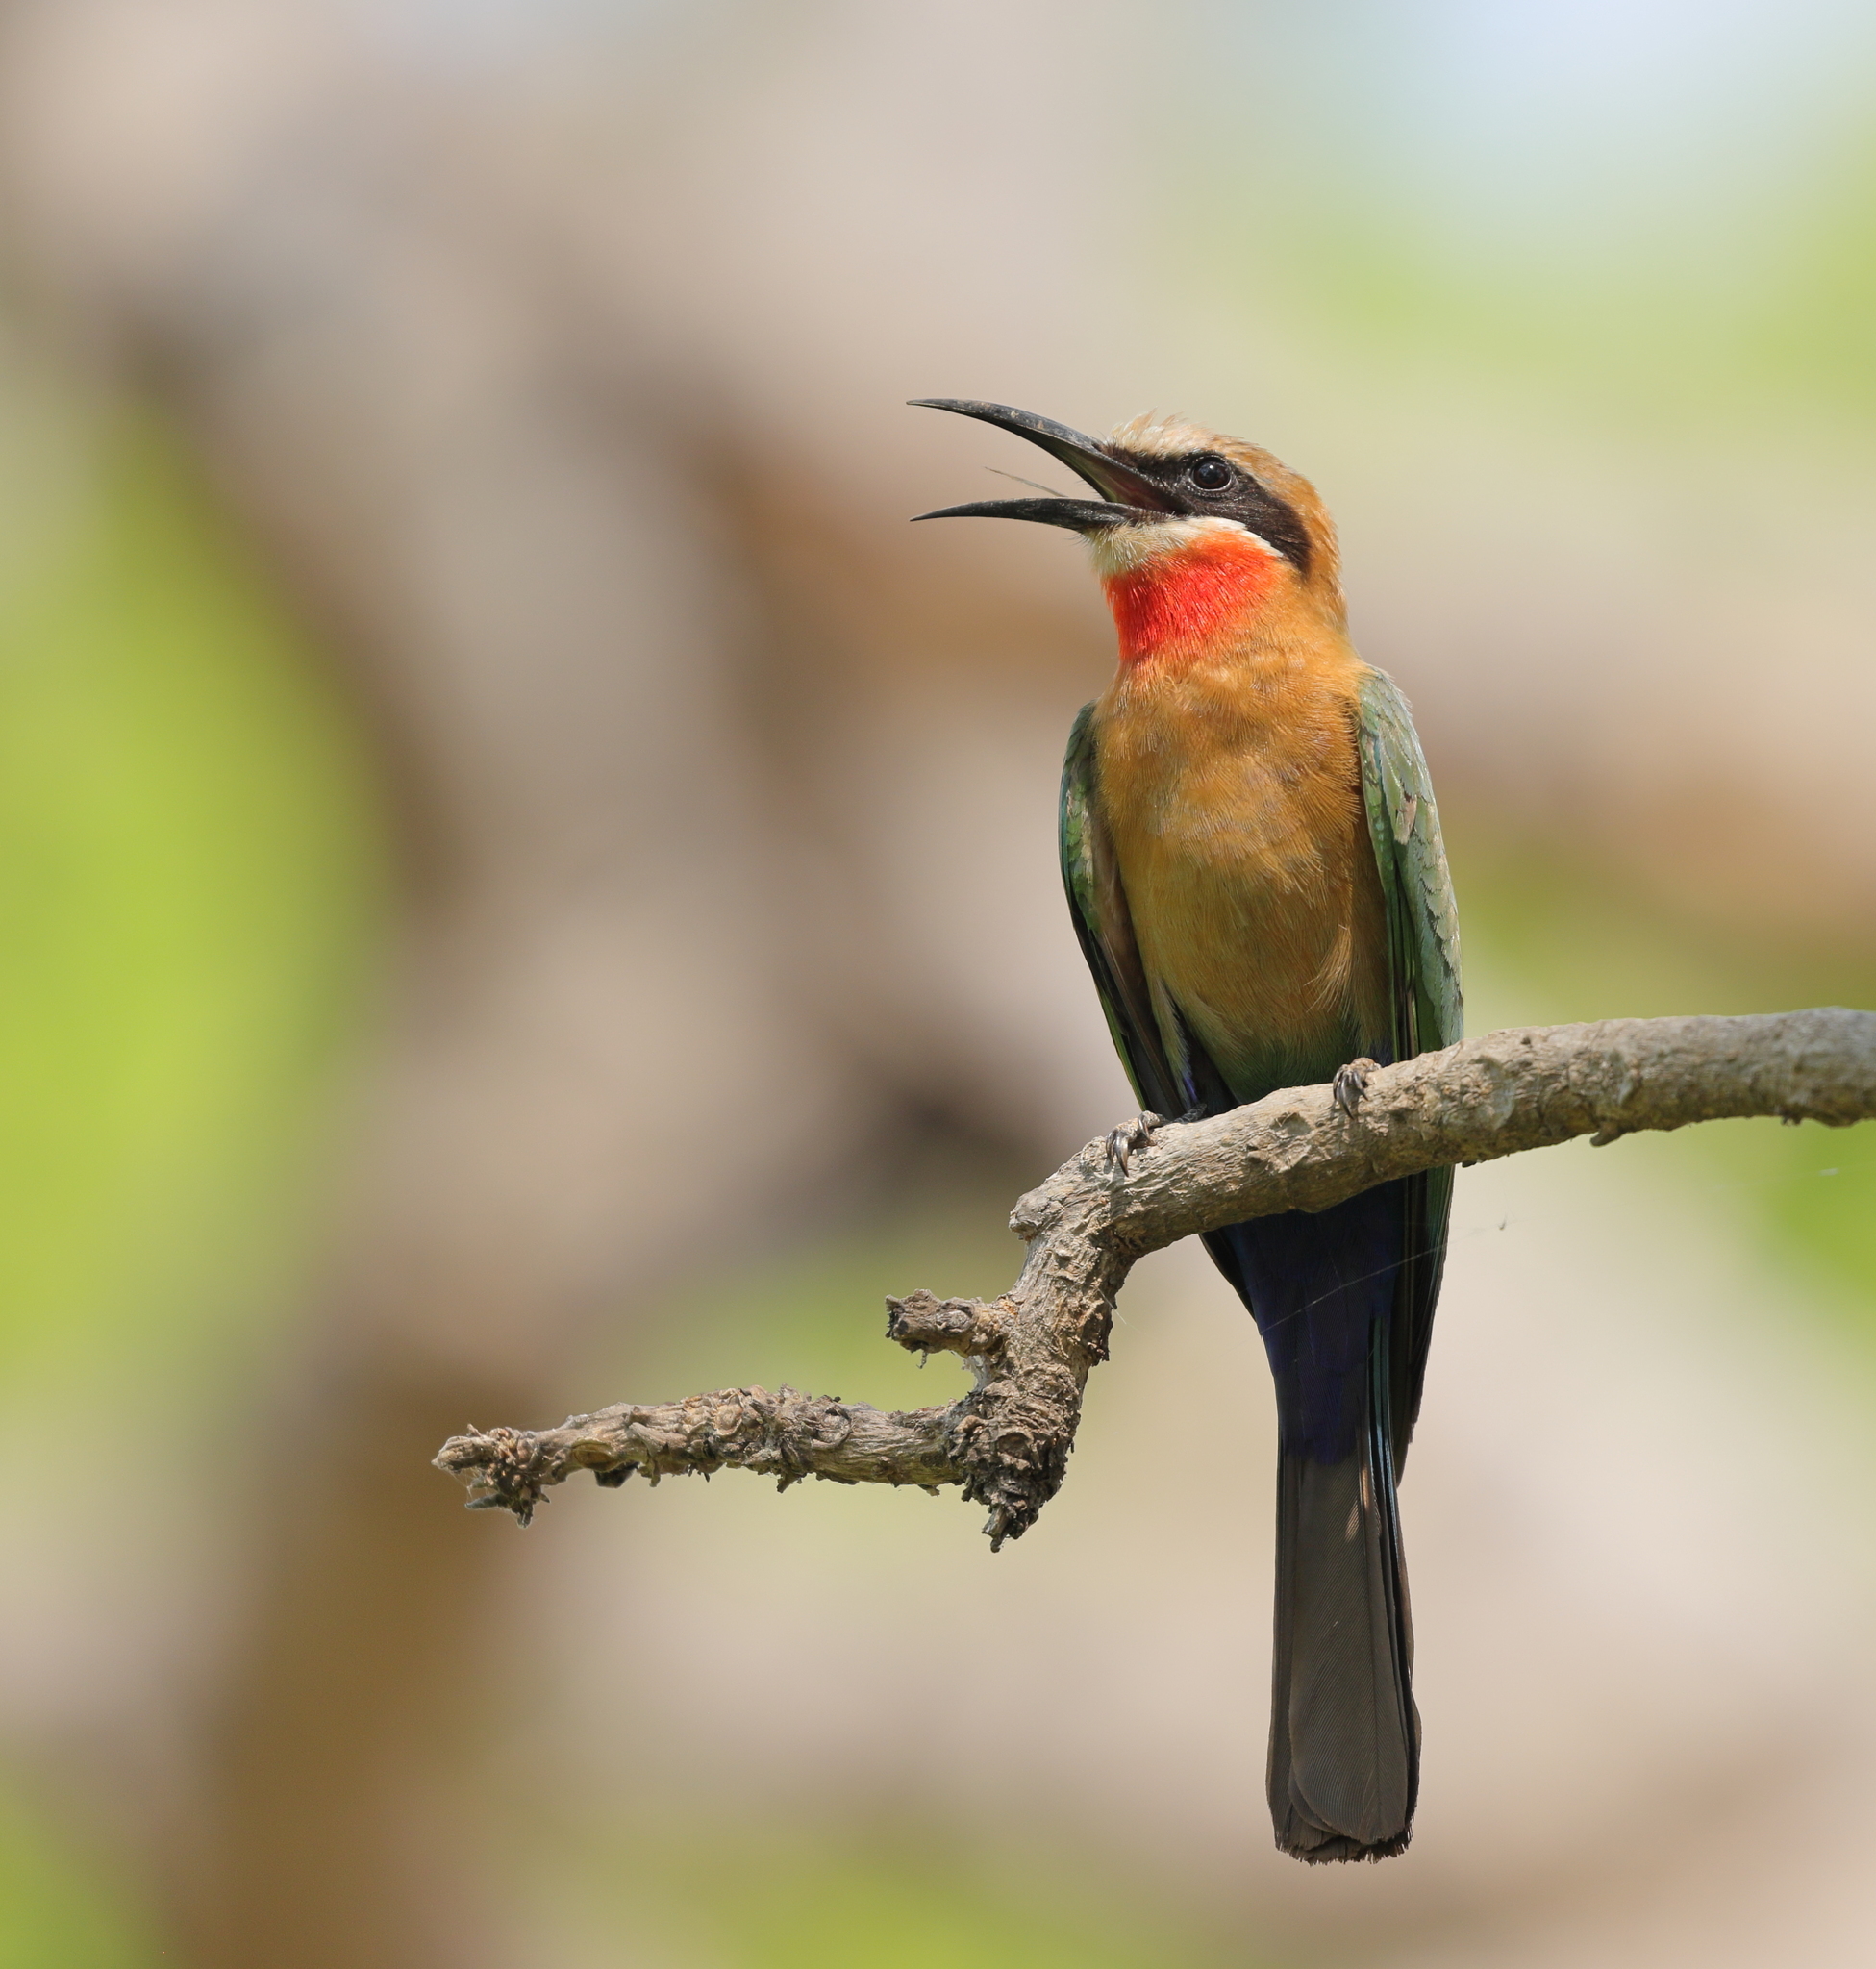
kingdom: Animalia
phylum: Chordata
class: Aves
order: Coraciiformes
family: Meropidae
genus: Merops
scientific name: Merops bullockoides
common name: White-fronted bee-eater
